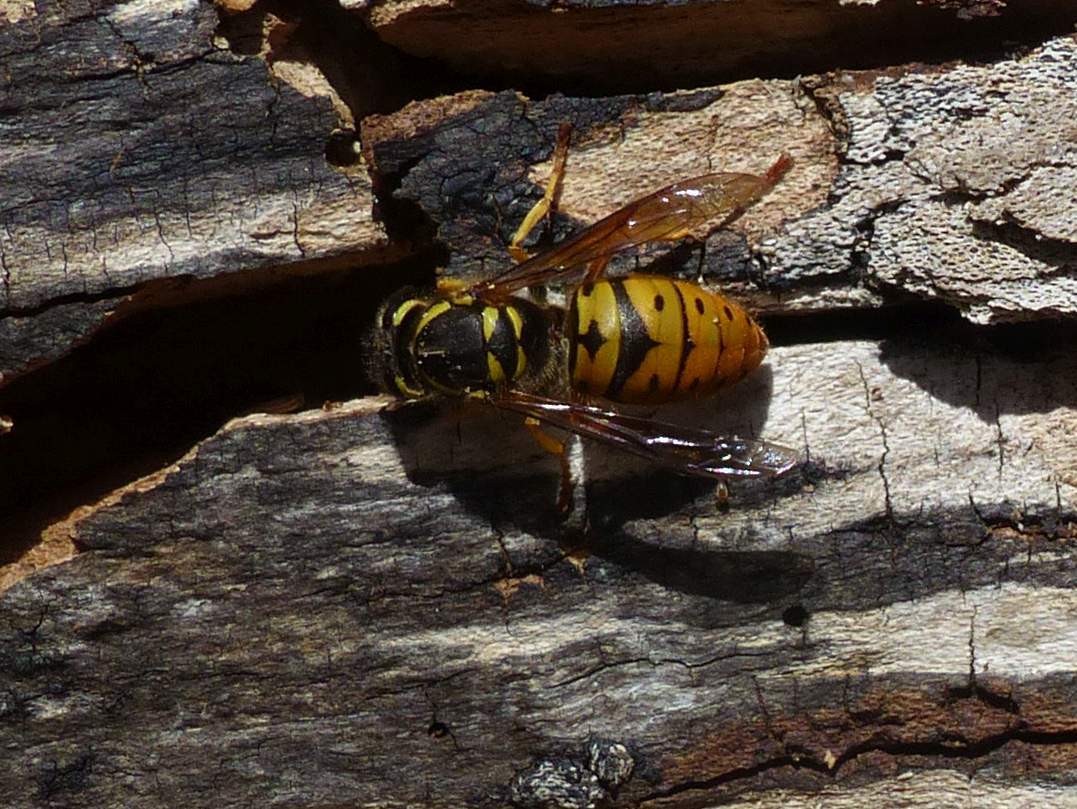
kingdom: Animalia
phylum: Arthropoda
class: Insecta
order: Hymenoptera
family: Vespidae
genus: Vespula
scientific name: Vespula maculifrons
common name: Eastern yellowjacket
